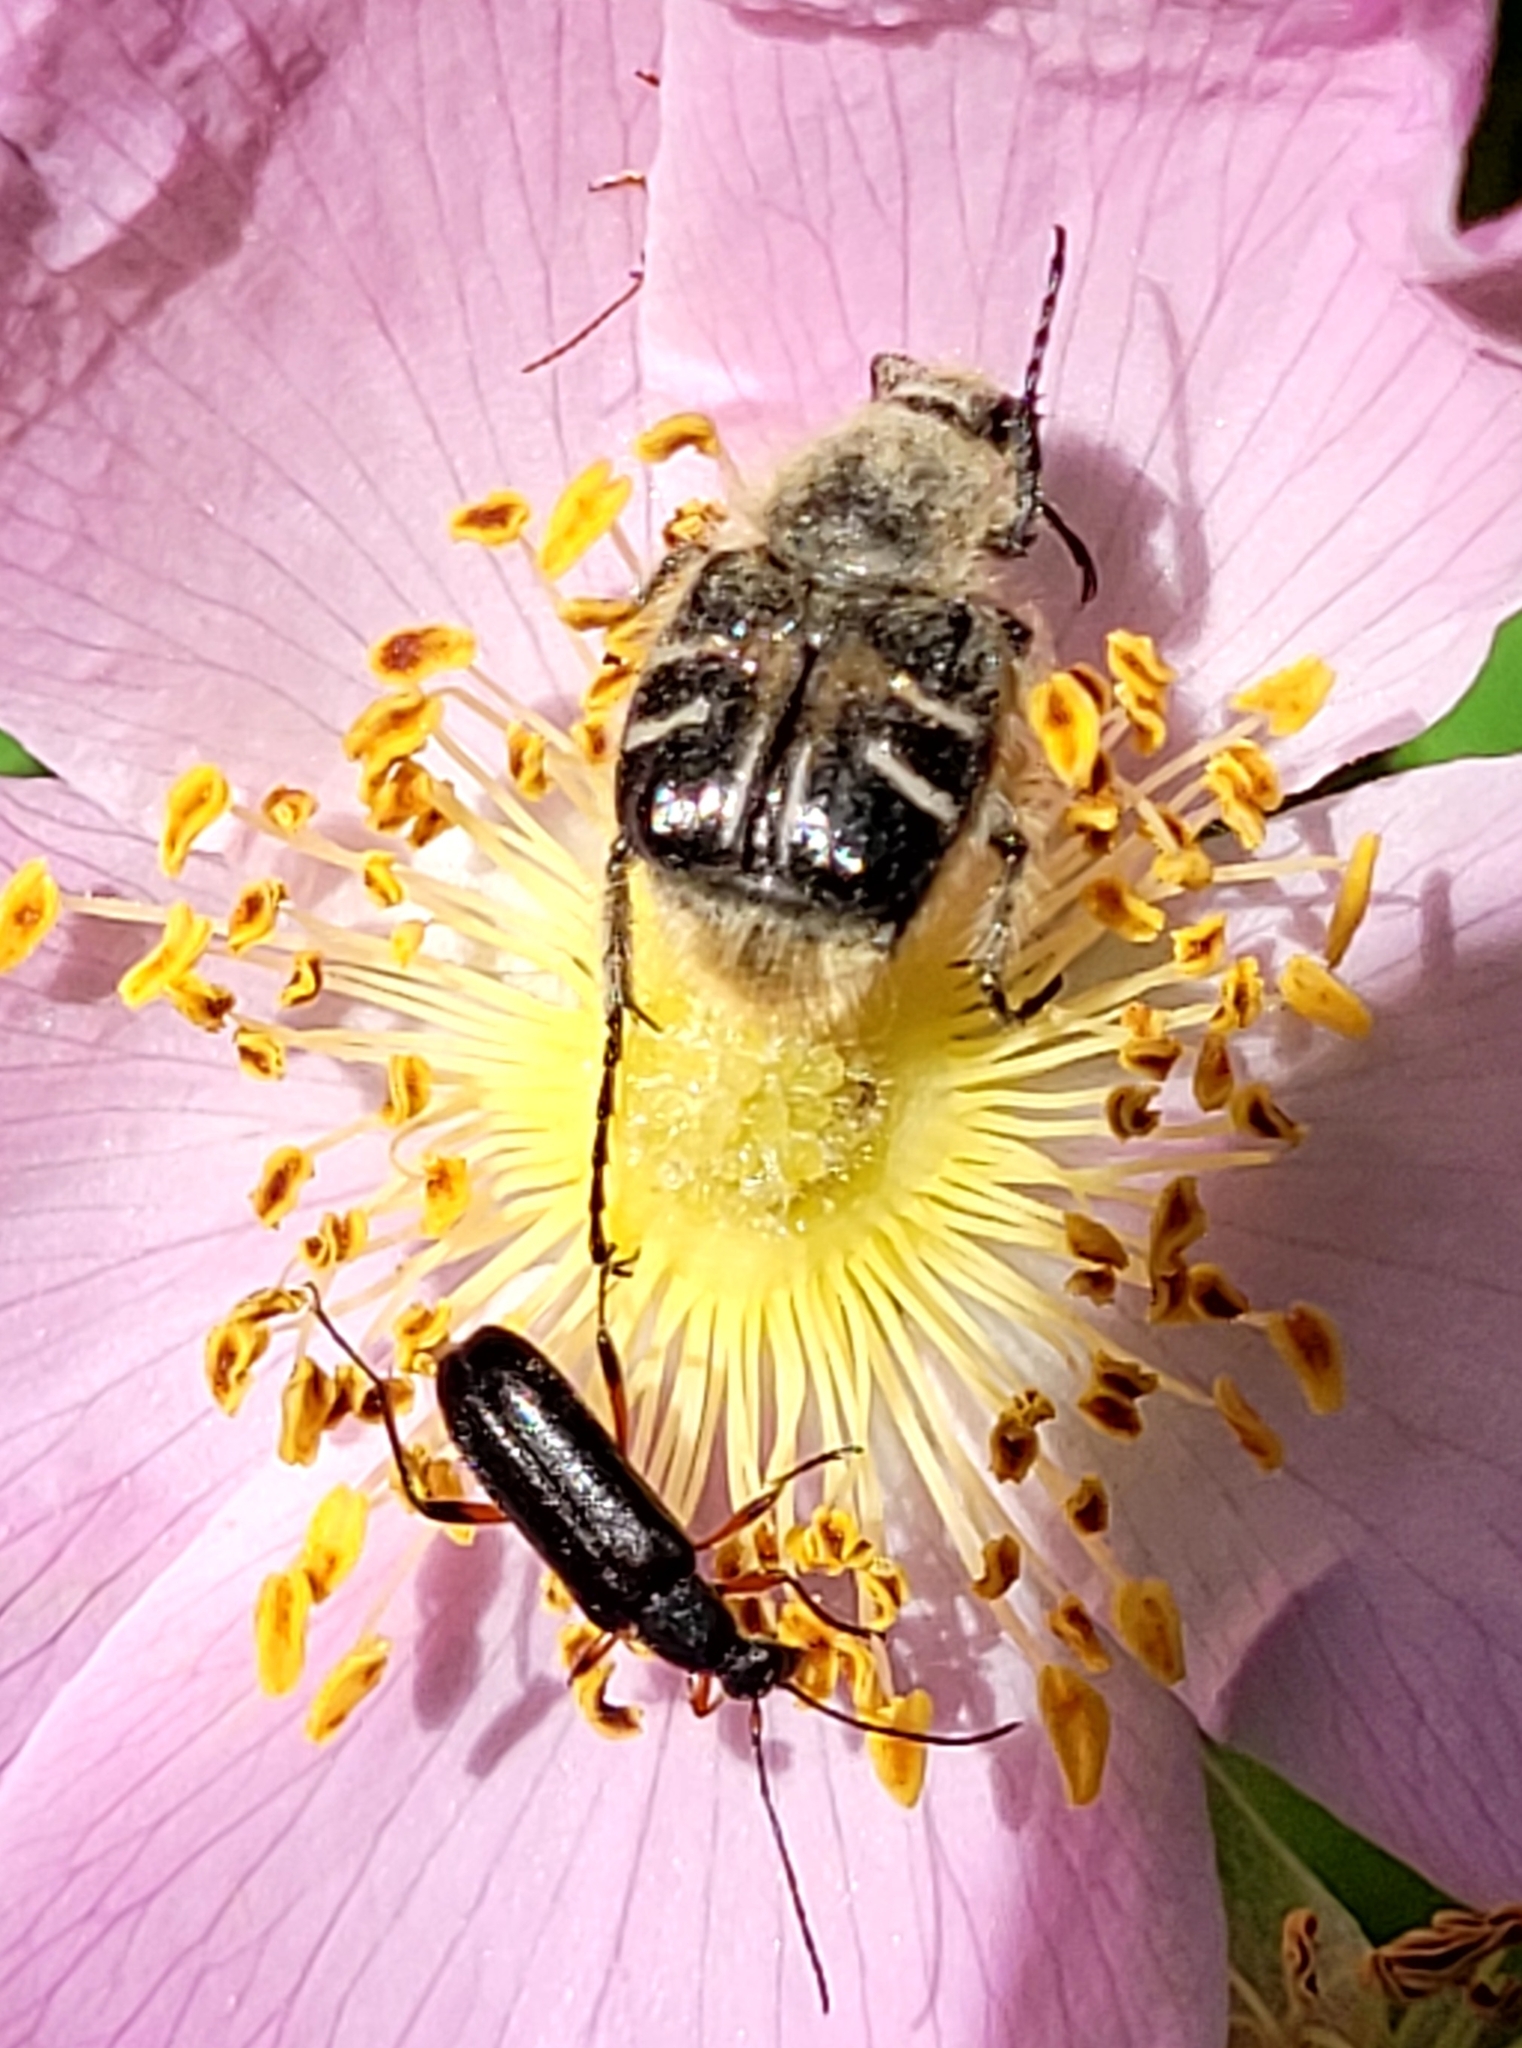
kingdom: Animalia
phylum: Arthropoda
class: Insecta
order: Coleoptera
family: Scarabaeidae
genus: Trichiotinus
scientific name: Trichiotinus assimilis
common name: Bee-mimic beetle
